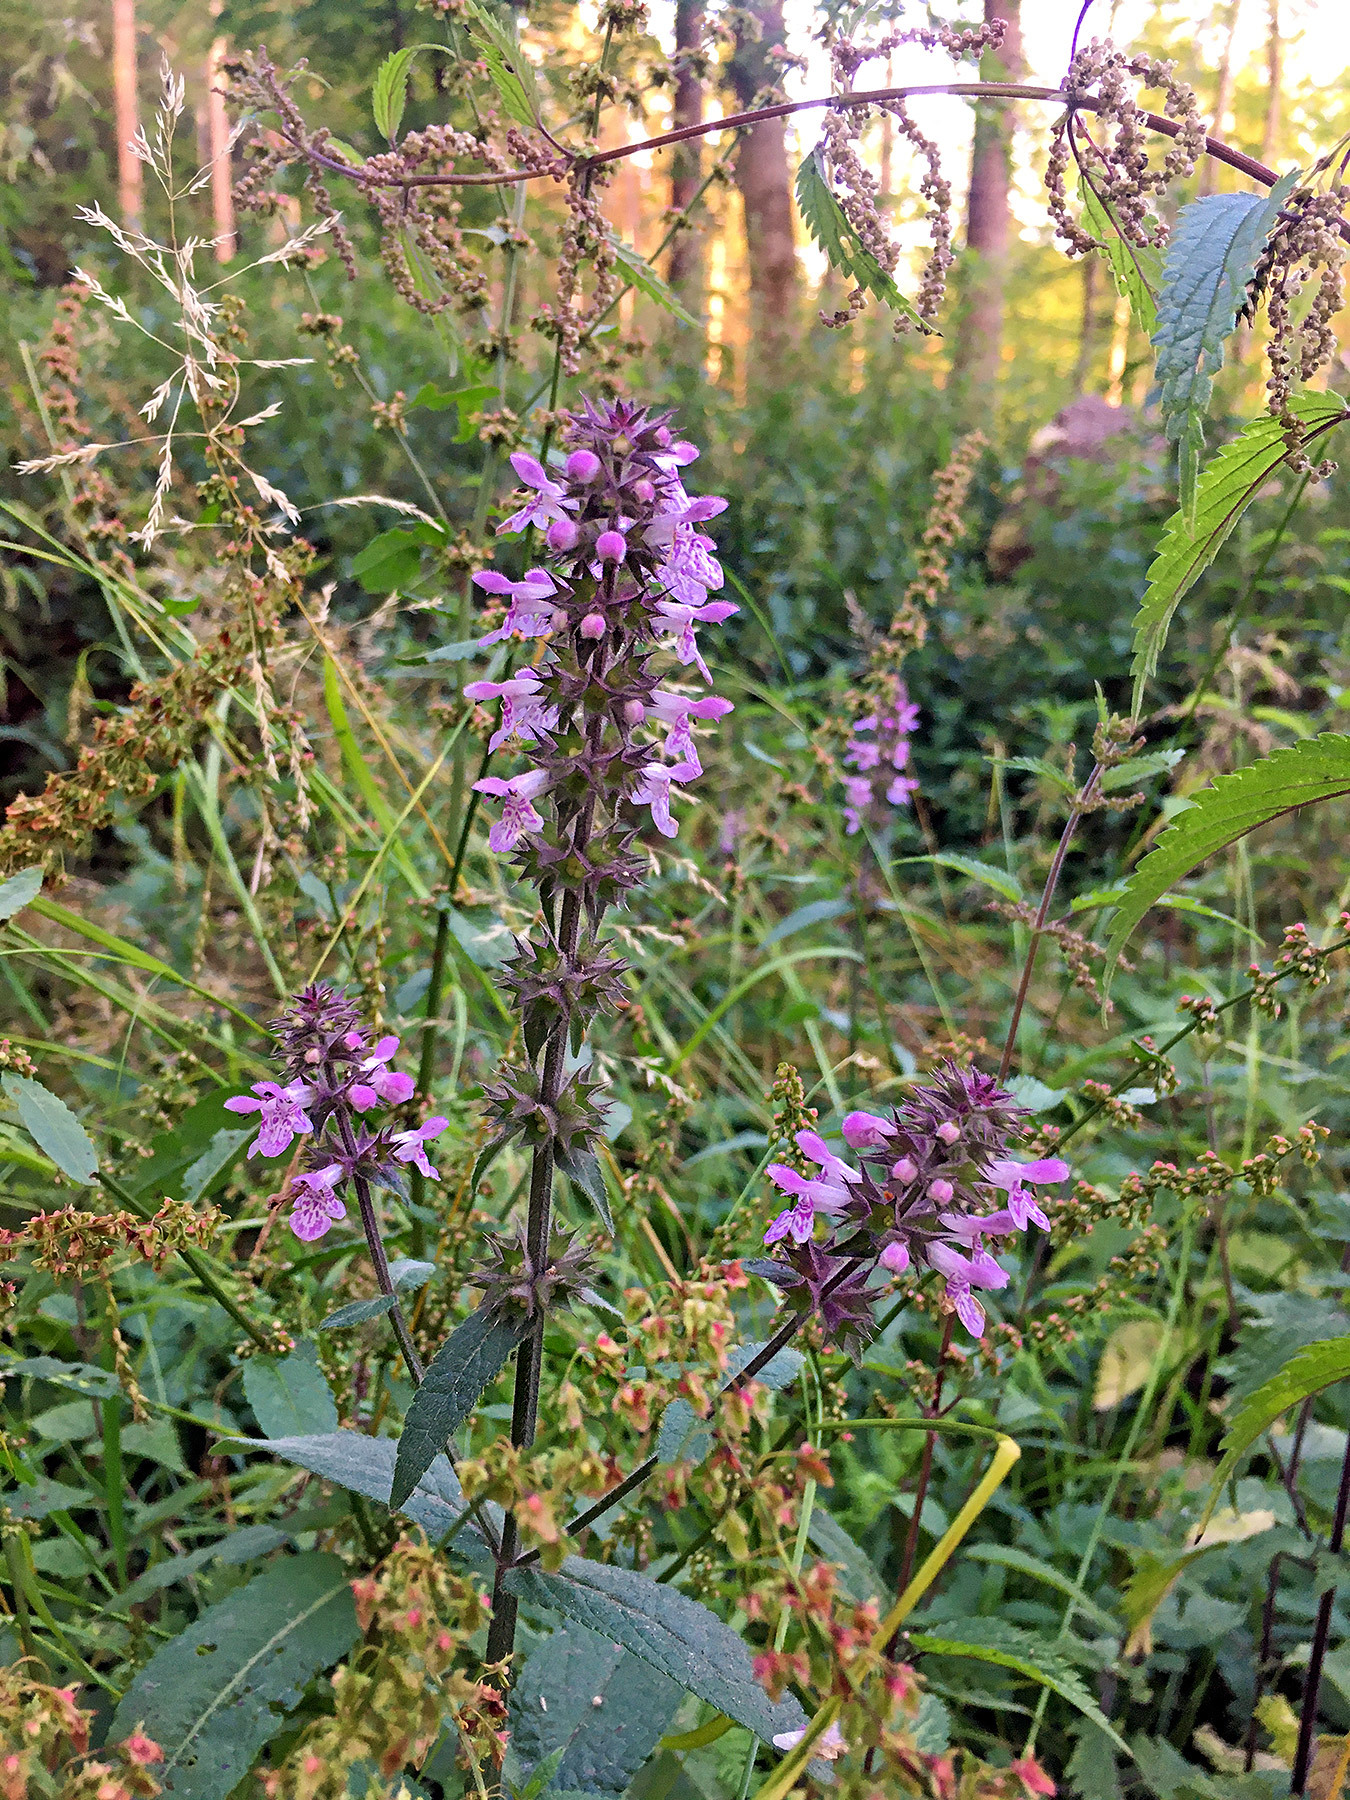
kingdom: Plantae
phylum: Tracheophyta
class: Magnoliopsida
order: Lamiales
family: Lamiaceae
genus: Stachys
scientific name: Stachys palustris
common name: Marsh woundwort
